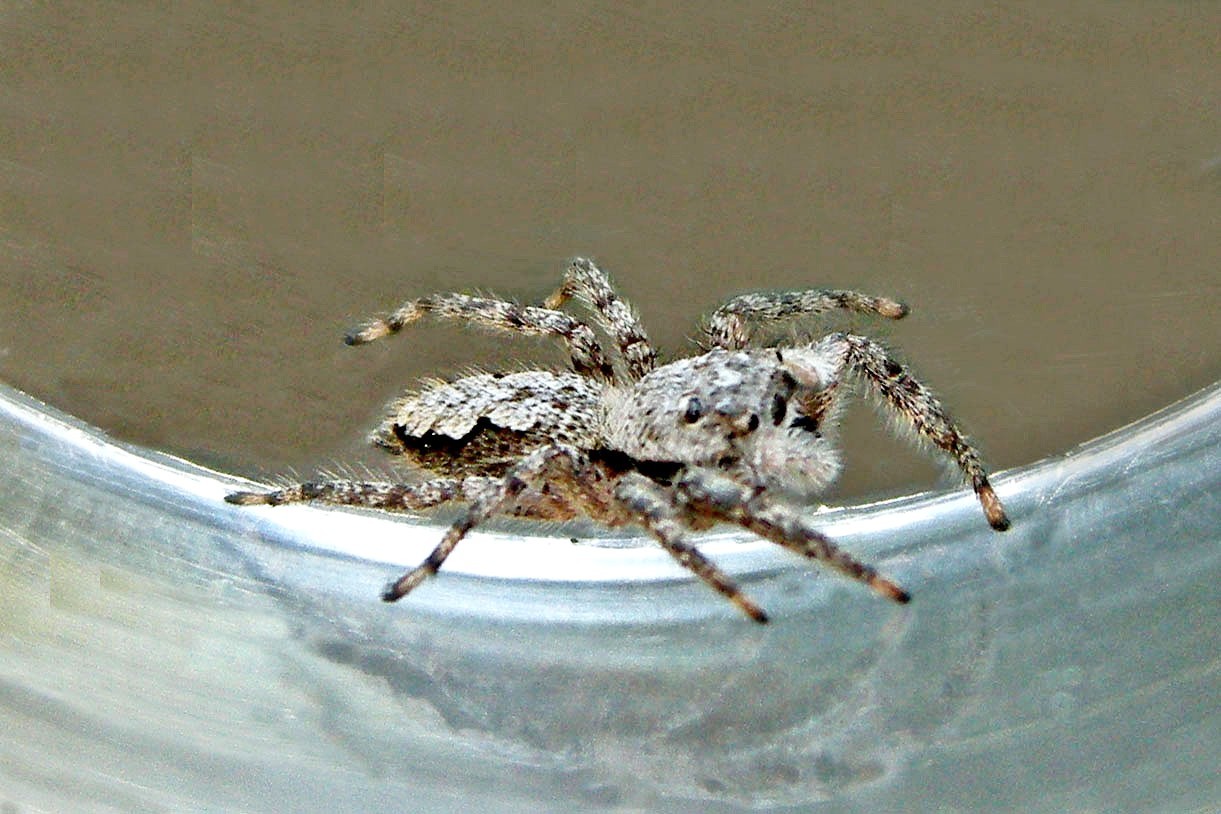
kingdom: Animalia
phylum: Arthropoda
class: Arachnida
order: Araneae
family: Salticidae
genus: Platycryptus
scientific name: Platycryptus undatus
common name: Tan jumping spider
